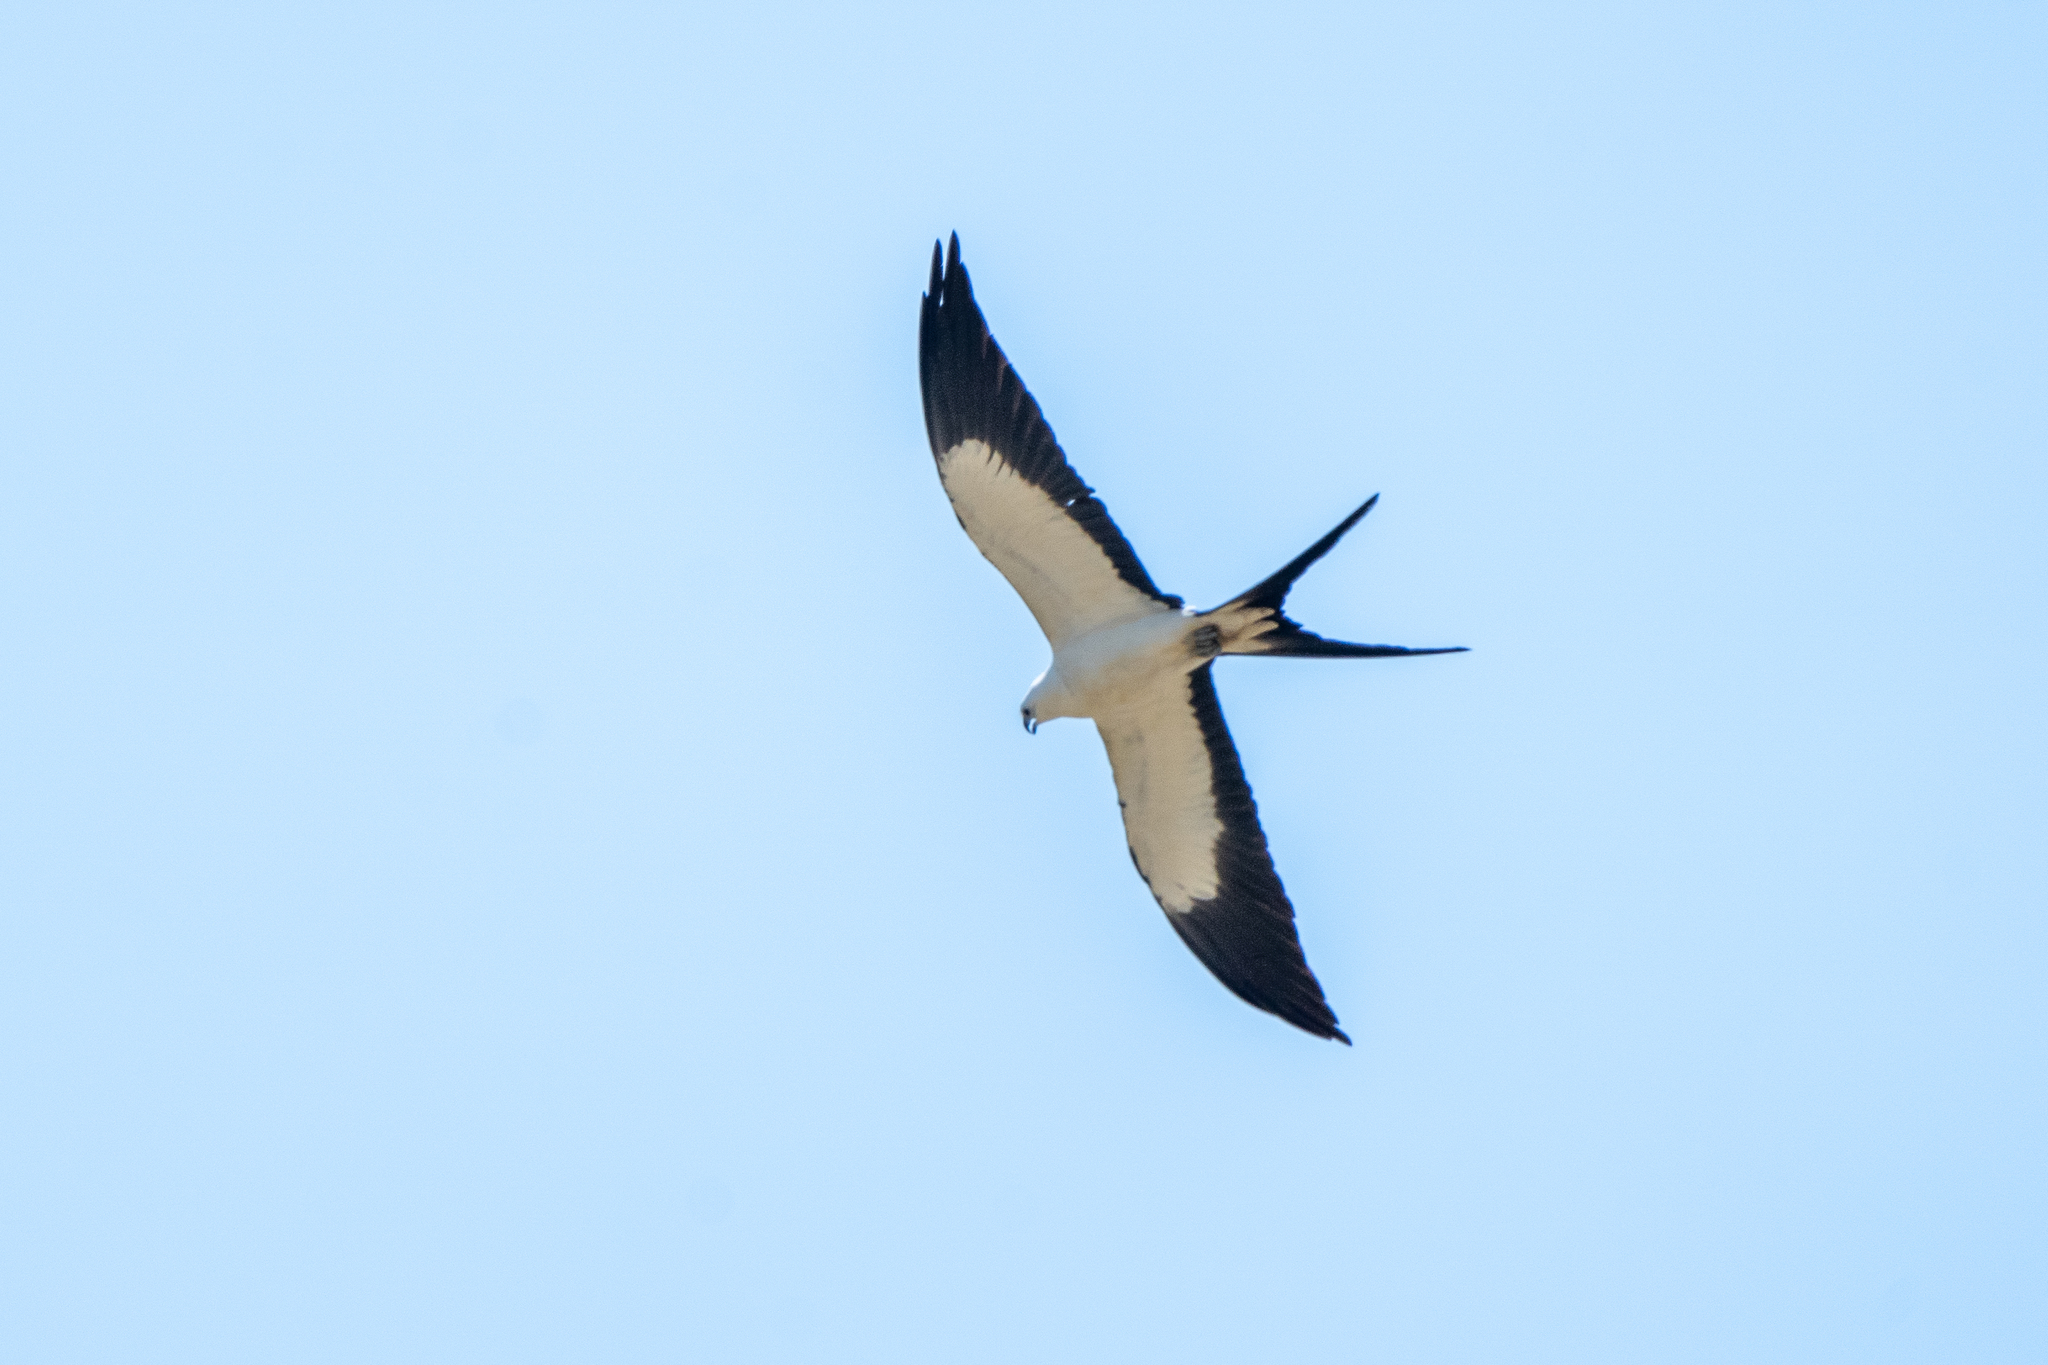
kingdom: Animalia
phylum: Chordata
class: Aves
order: Accipitriformes
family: Accipitridae
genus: Elanoides
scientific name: Elanoides forficatus
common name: Swallow-tailed kite
